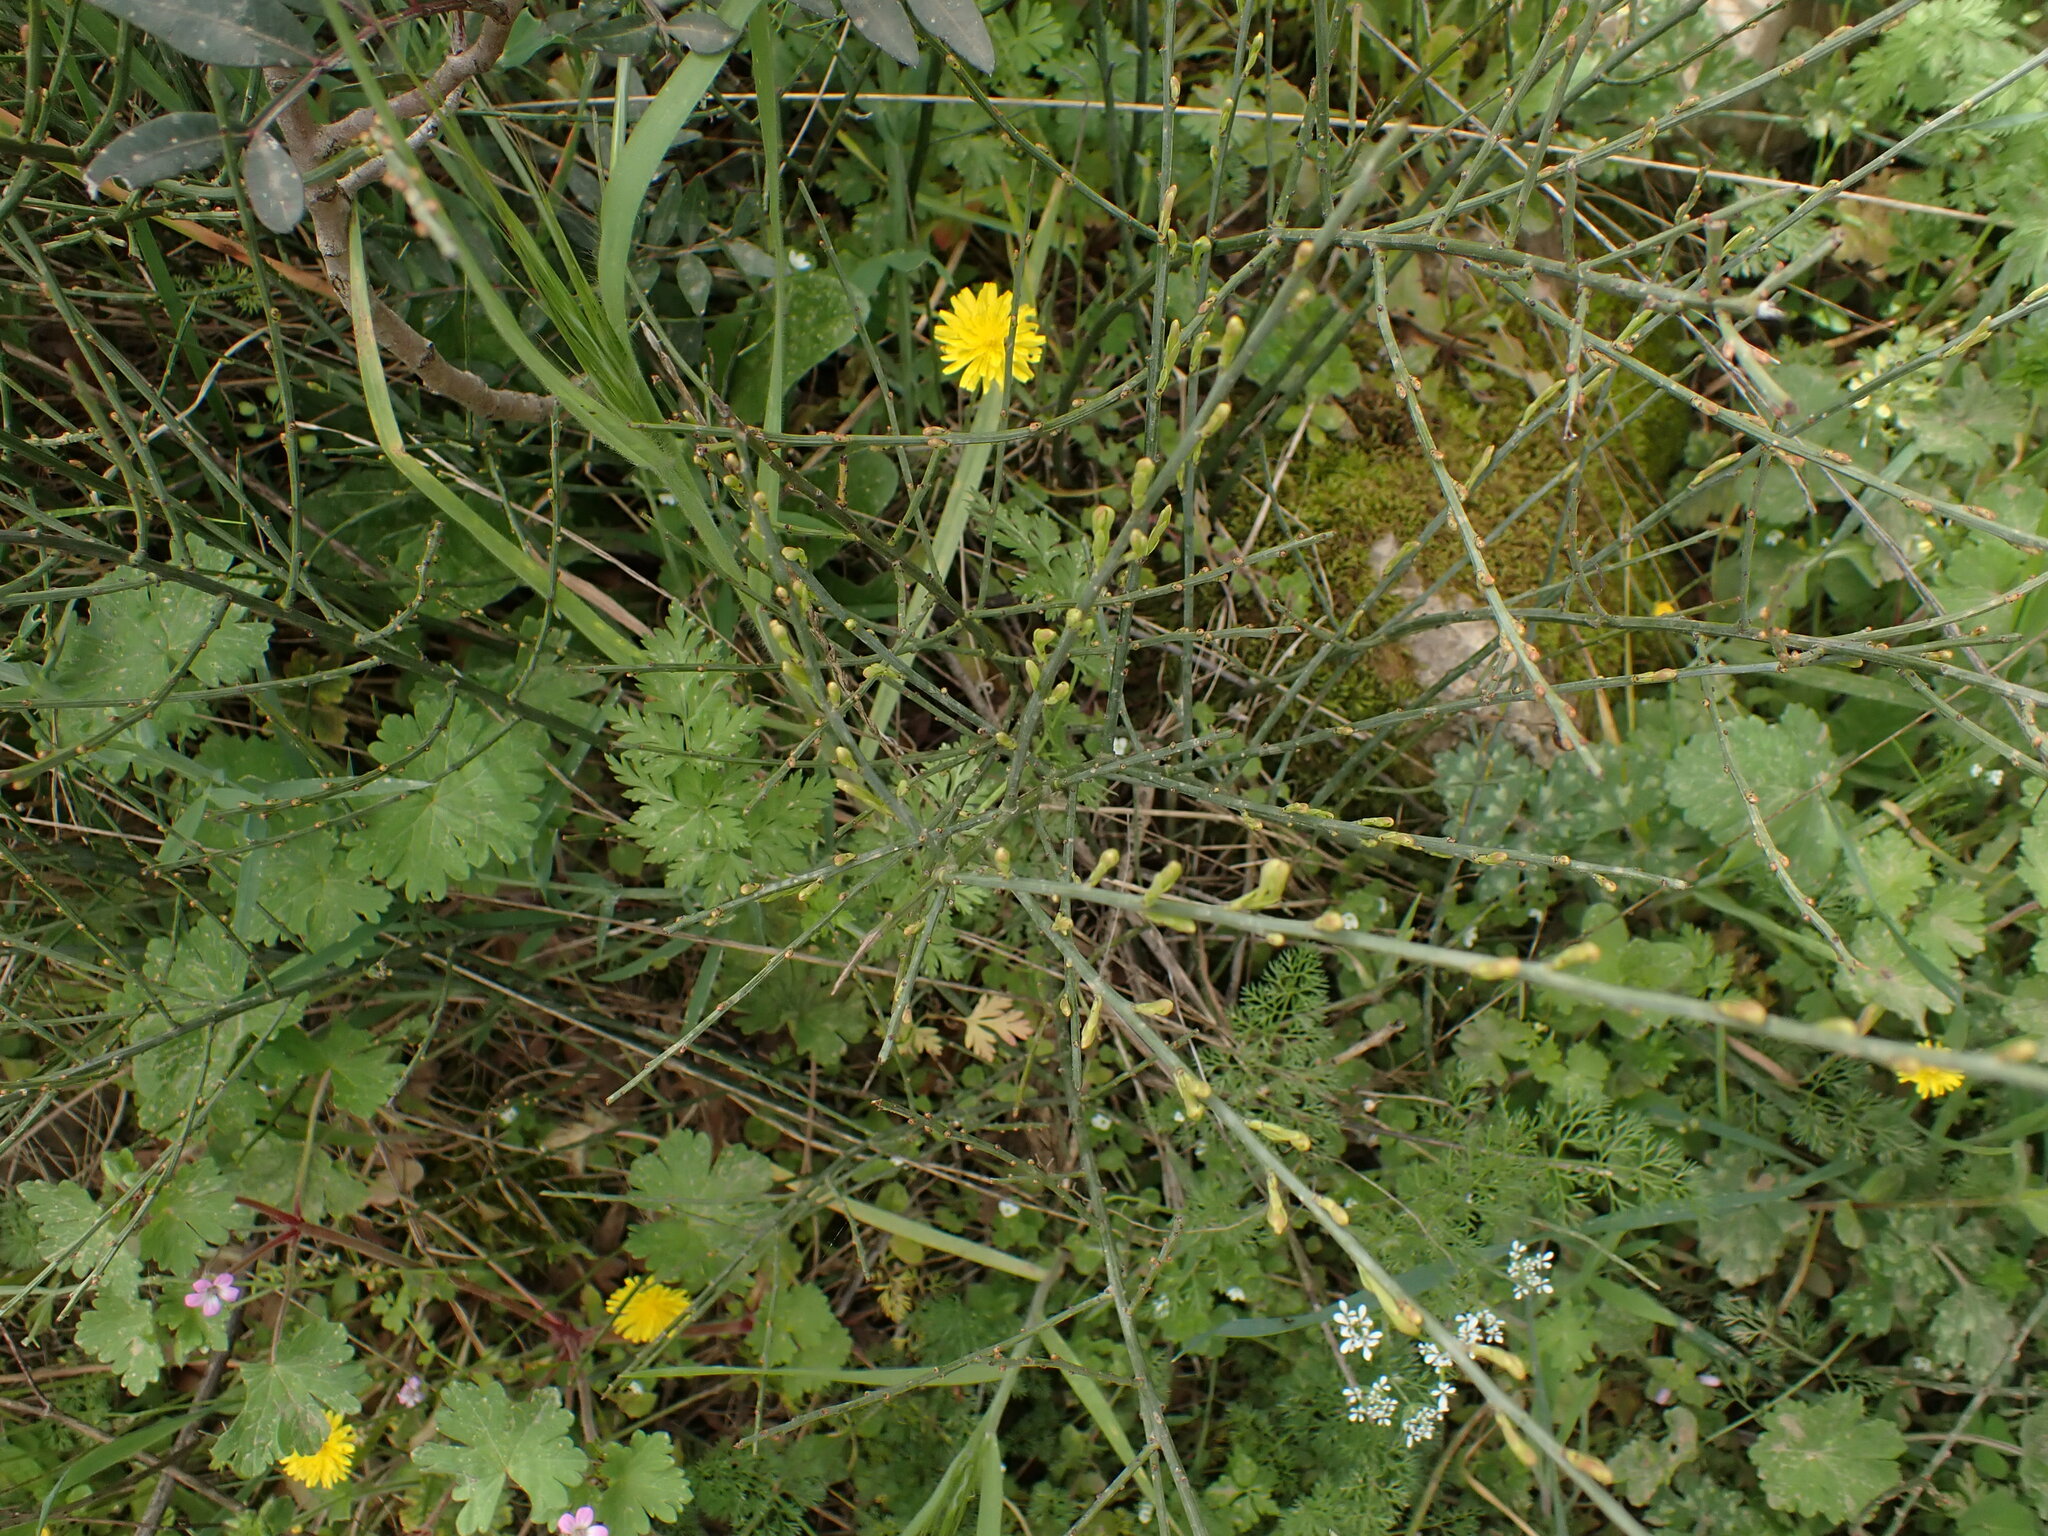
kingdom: Plantae
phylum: Tracheophyta
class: Magnoliopsida
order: Santalales
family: Santalaceae
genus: Osyris
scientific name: Osyris alba
